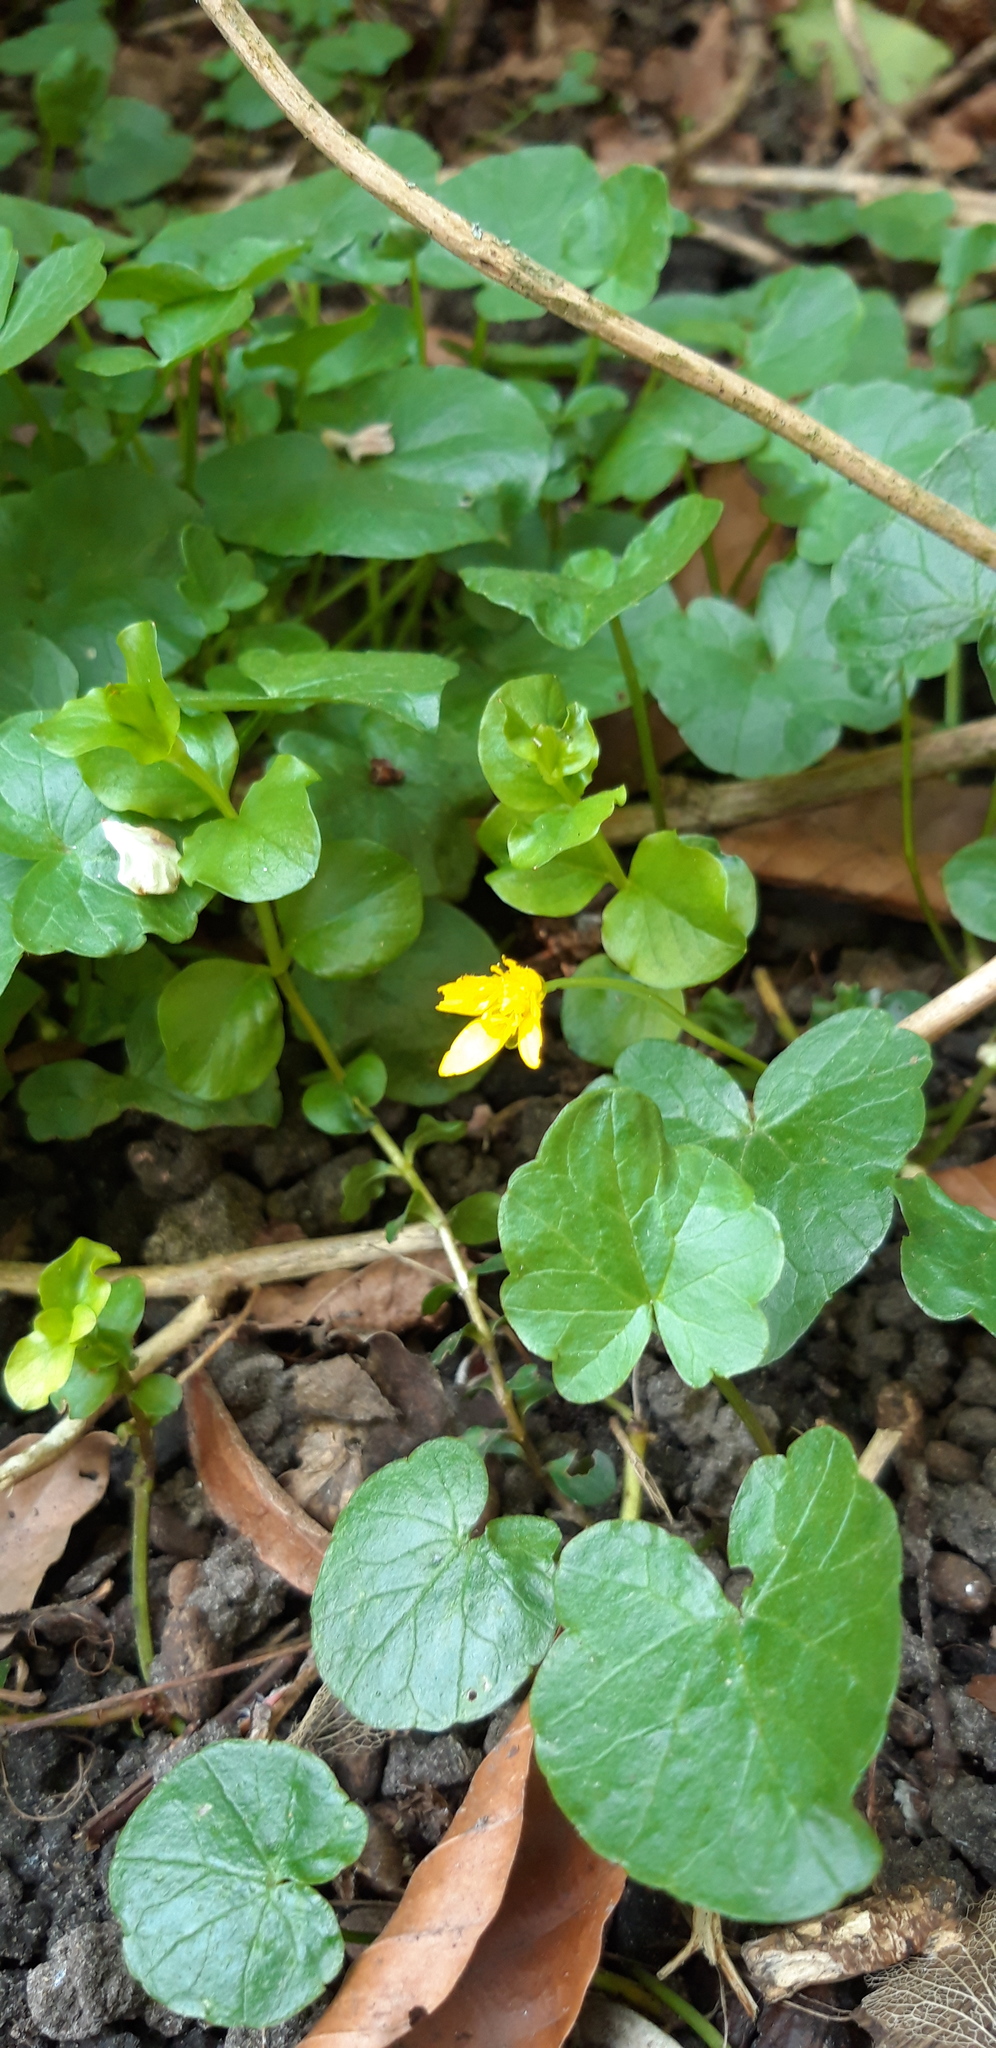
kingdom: Plantae
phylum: Tracheophyta
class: Magnoliopsida
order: Ranunculales
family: Ranunculaceae
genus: Ficaria
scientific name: Ficaria verna
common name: Lesser celandine
